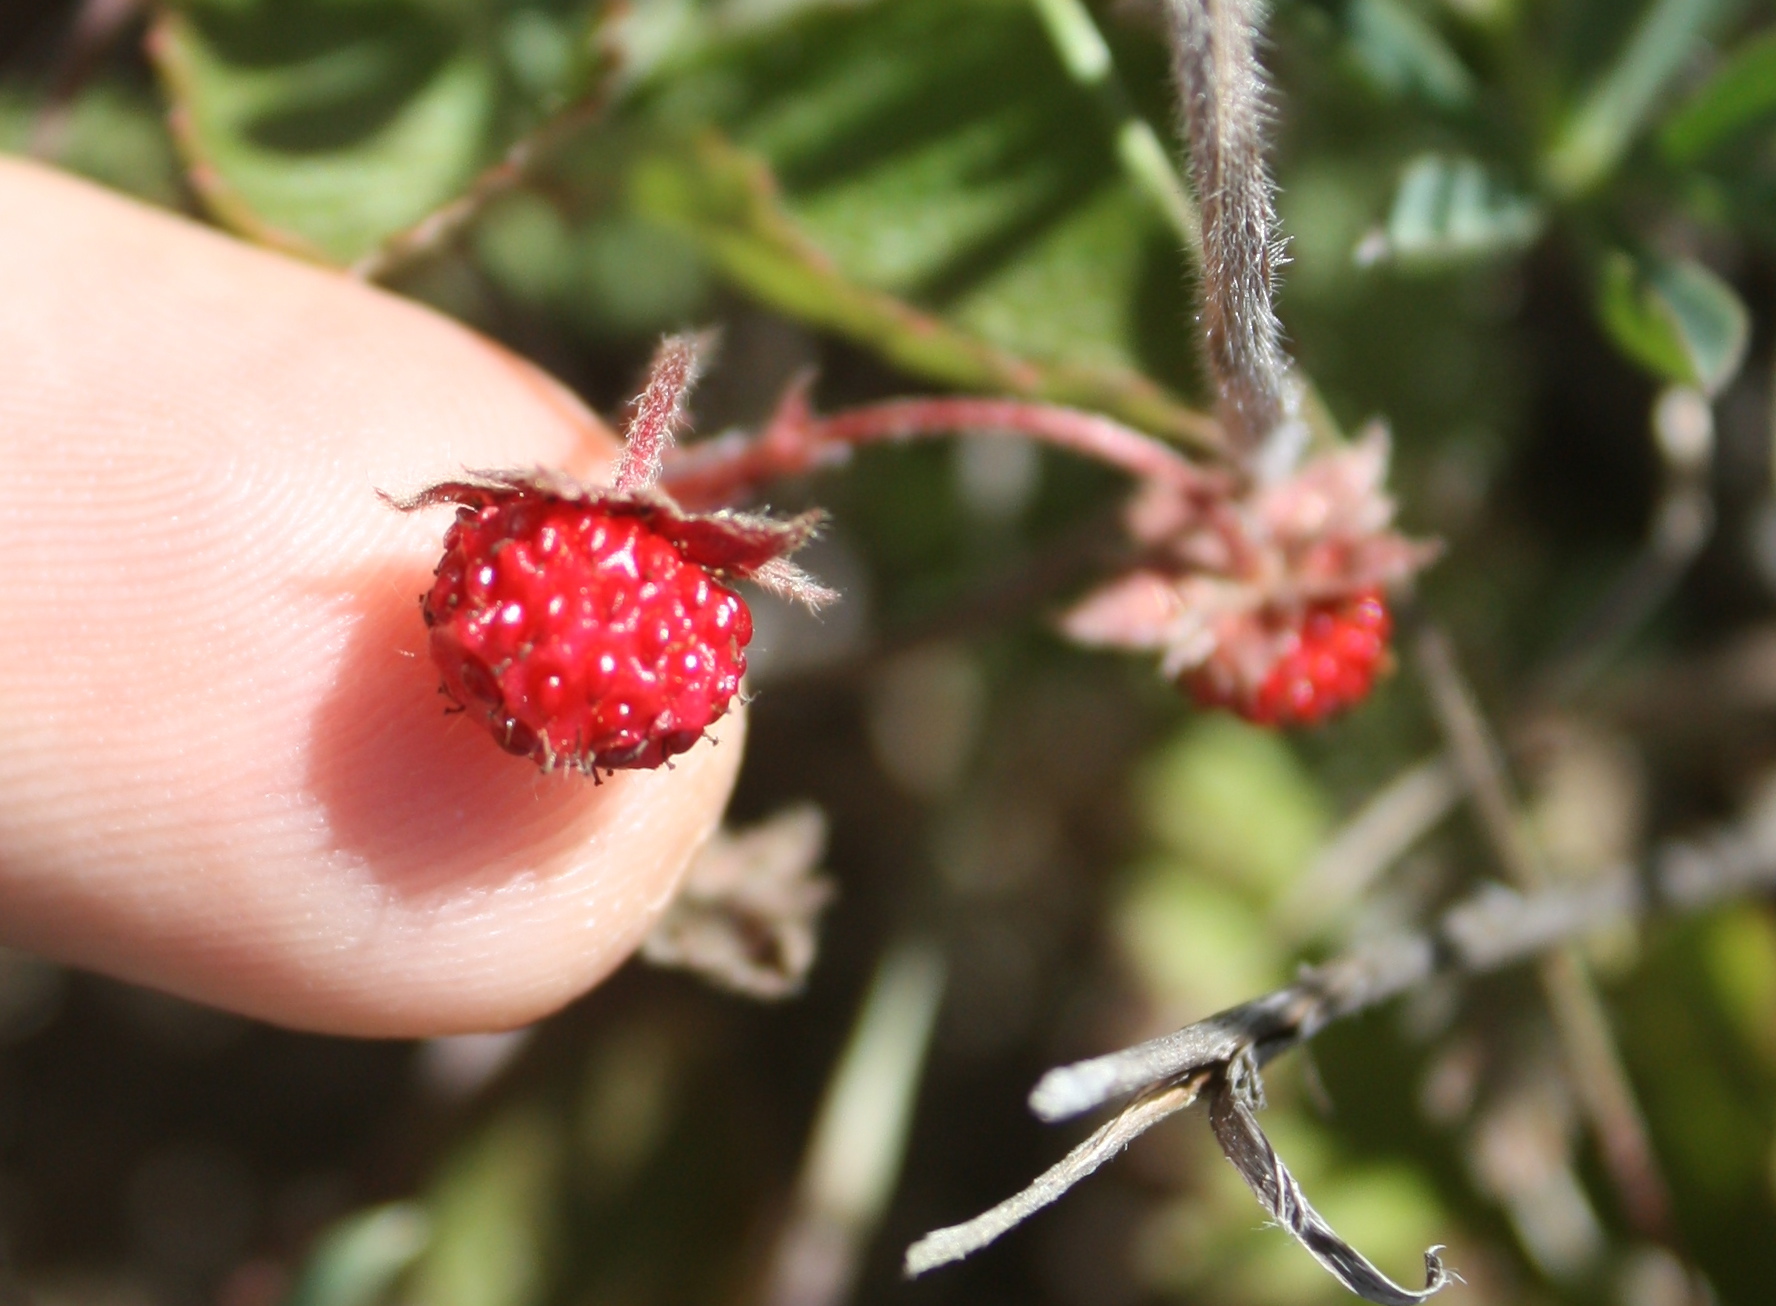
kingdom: Plantae
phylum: Tracheophyta
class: Magnoliopsida
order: Rosales
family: Rosaceae
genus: Fragaria
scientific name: Fragaria vesca
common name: Wild strawberry
